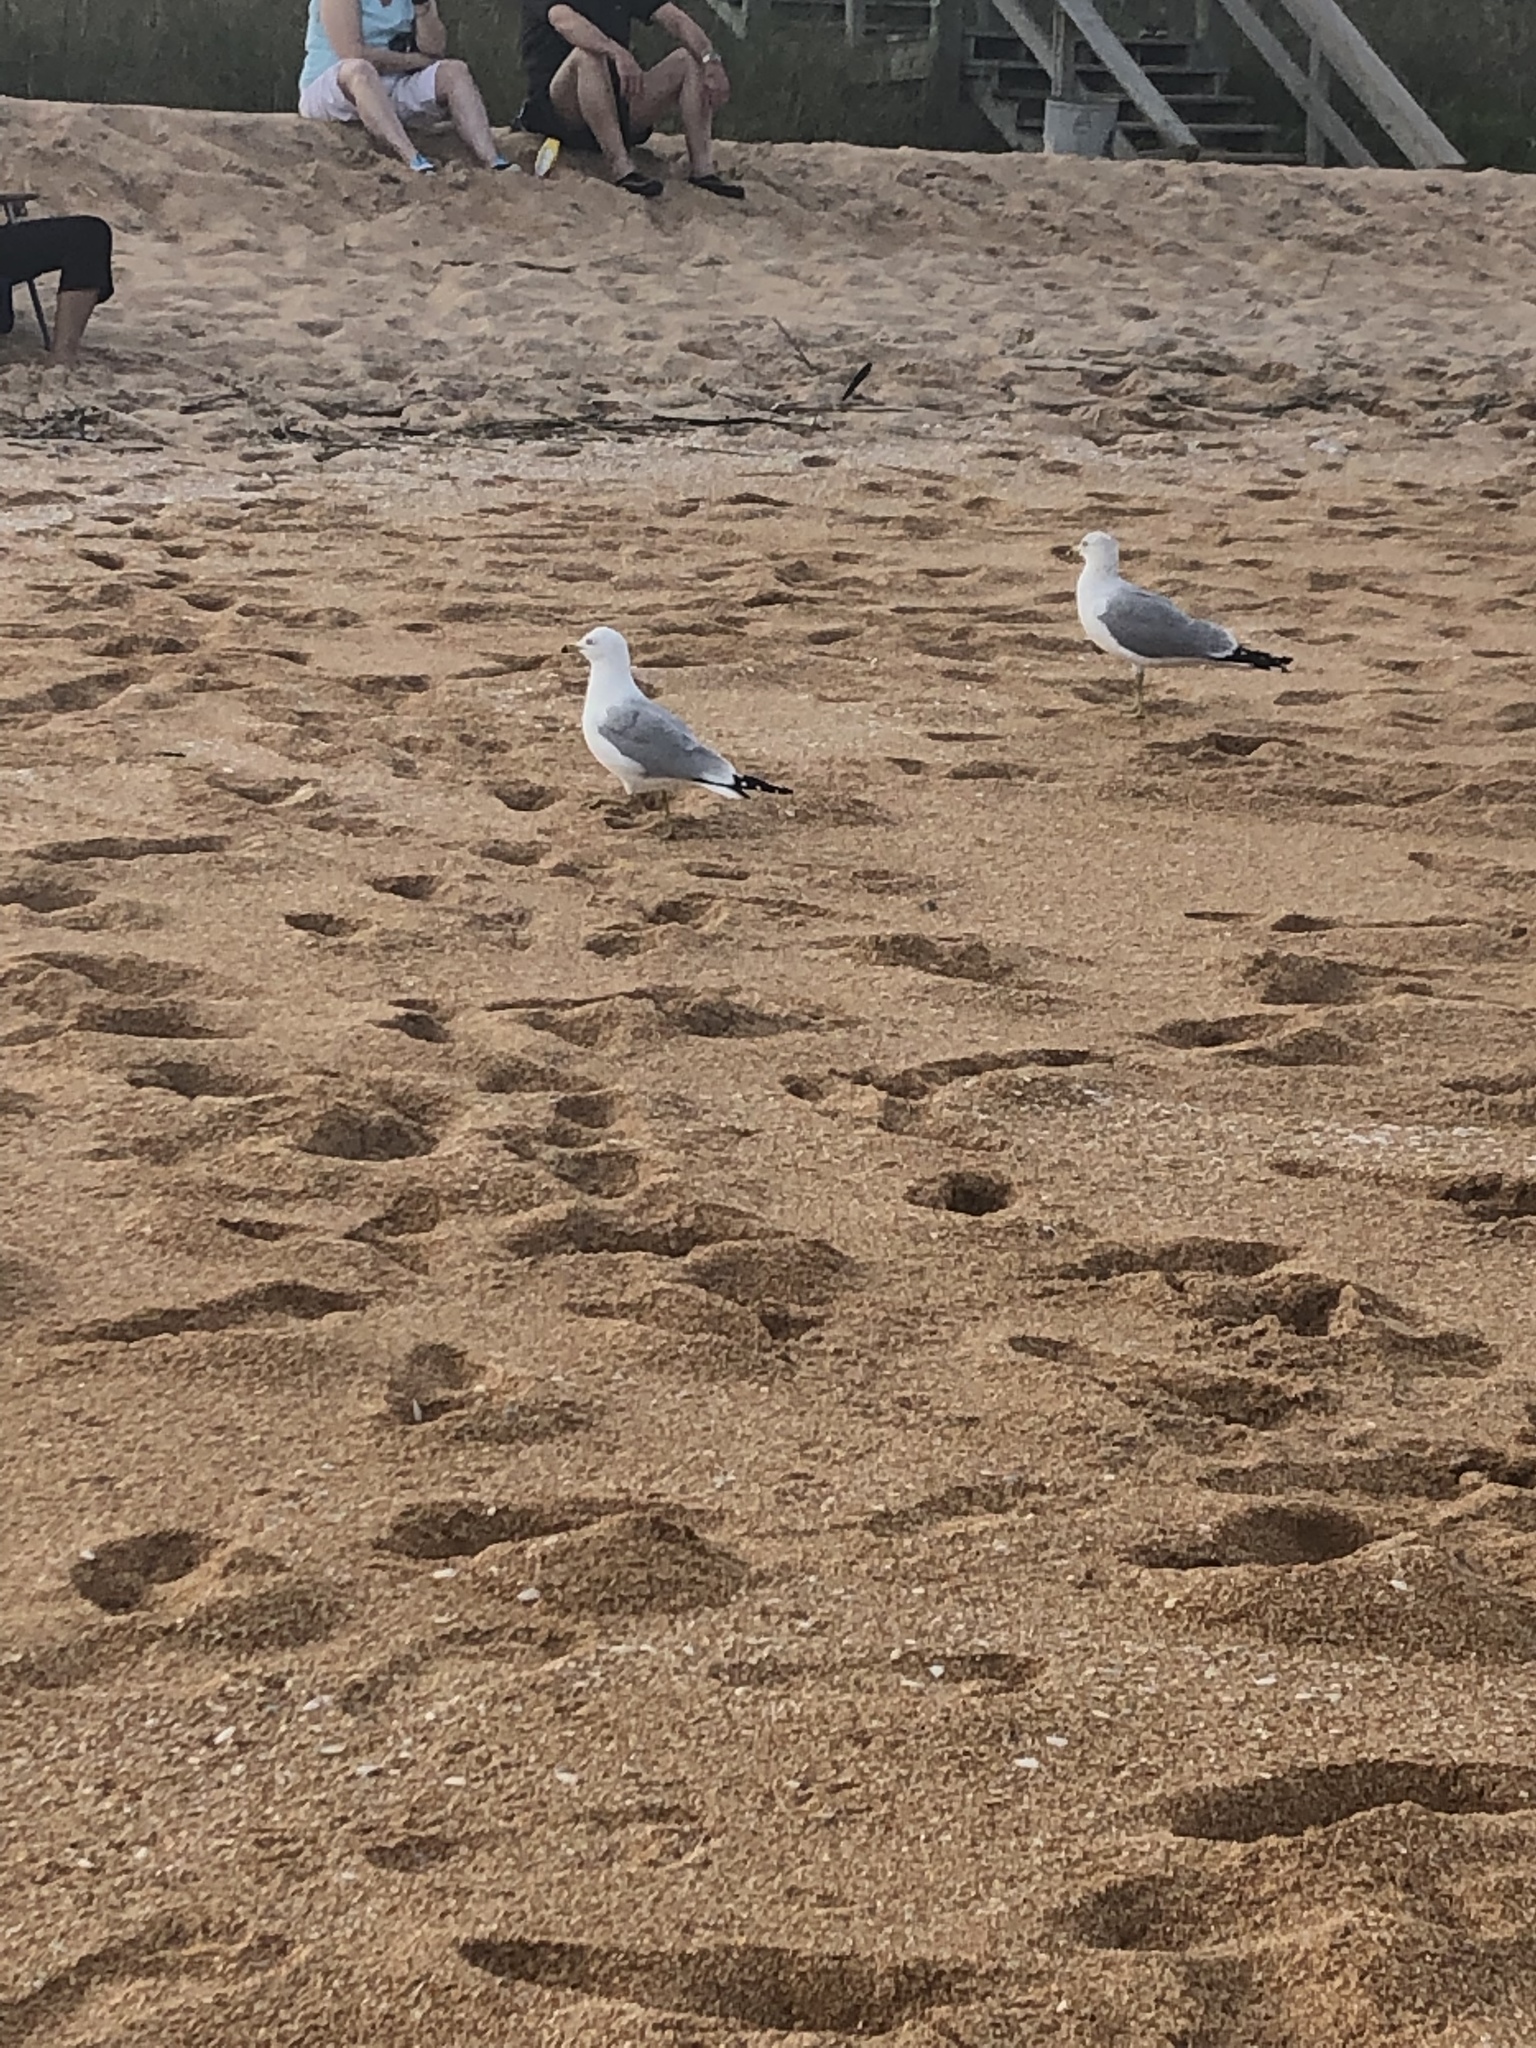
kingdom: Animalia
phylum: Chordata
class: Aves
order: Charadriiformes
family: Laridae
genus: Larus
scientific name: Larus delawarensis
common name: Ring-billed gull
